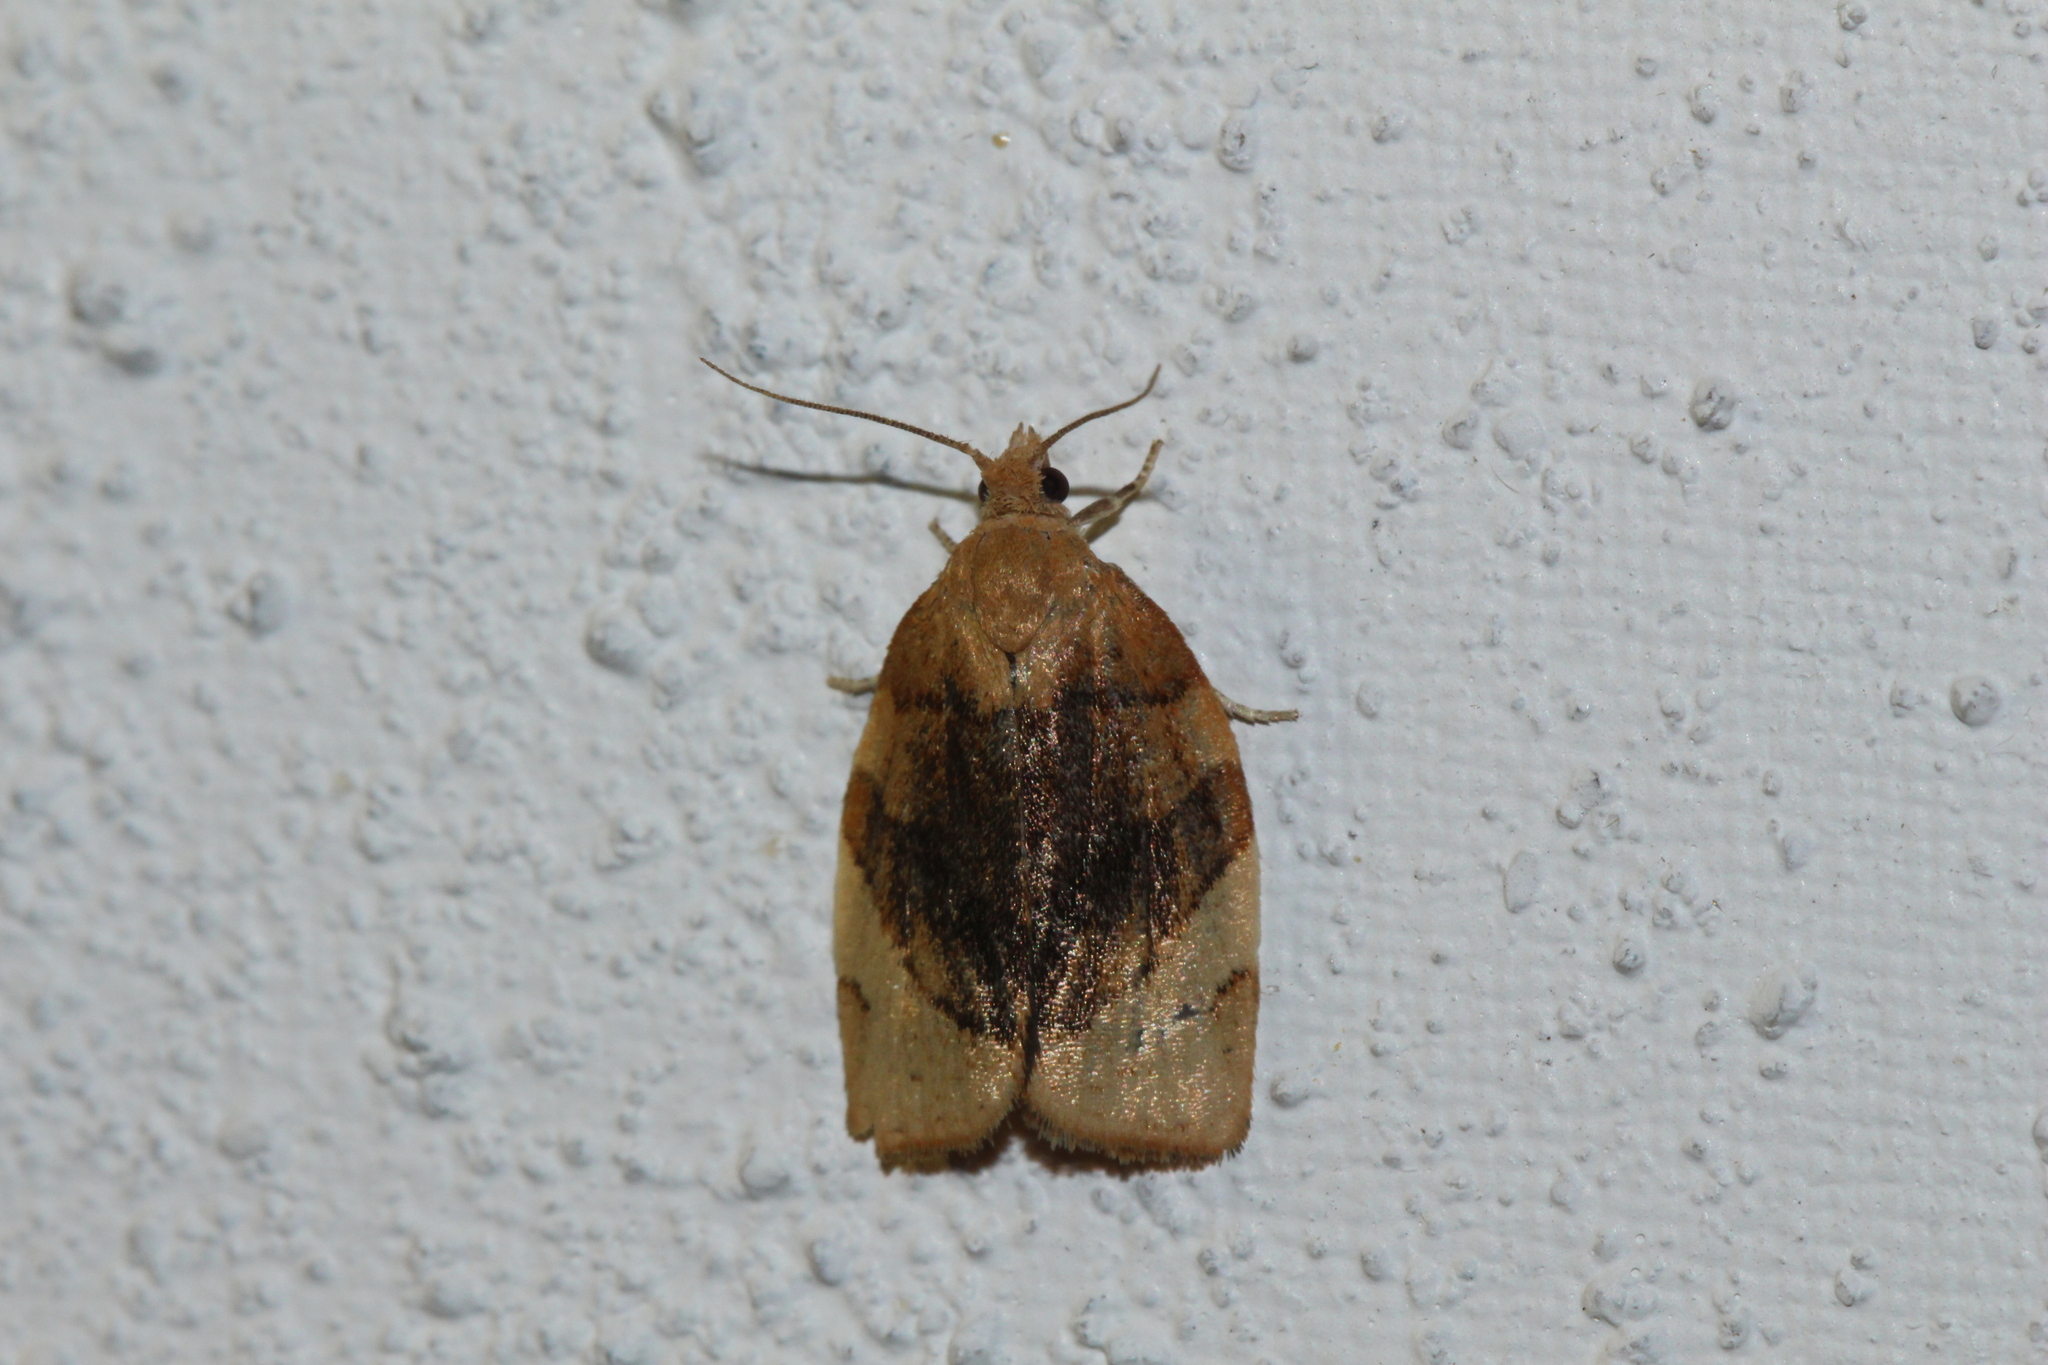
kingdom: Animalia
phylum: Arthropoda
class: Insecta
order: Lepidoptera
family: Tortricidae
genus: Pandemis
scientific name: Pandemis cerasana
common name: Barred fruit-tree tortrix
